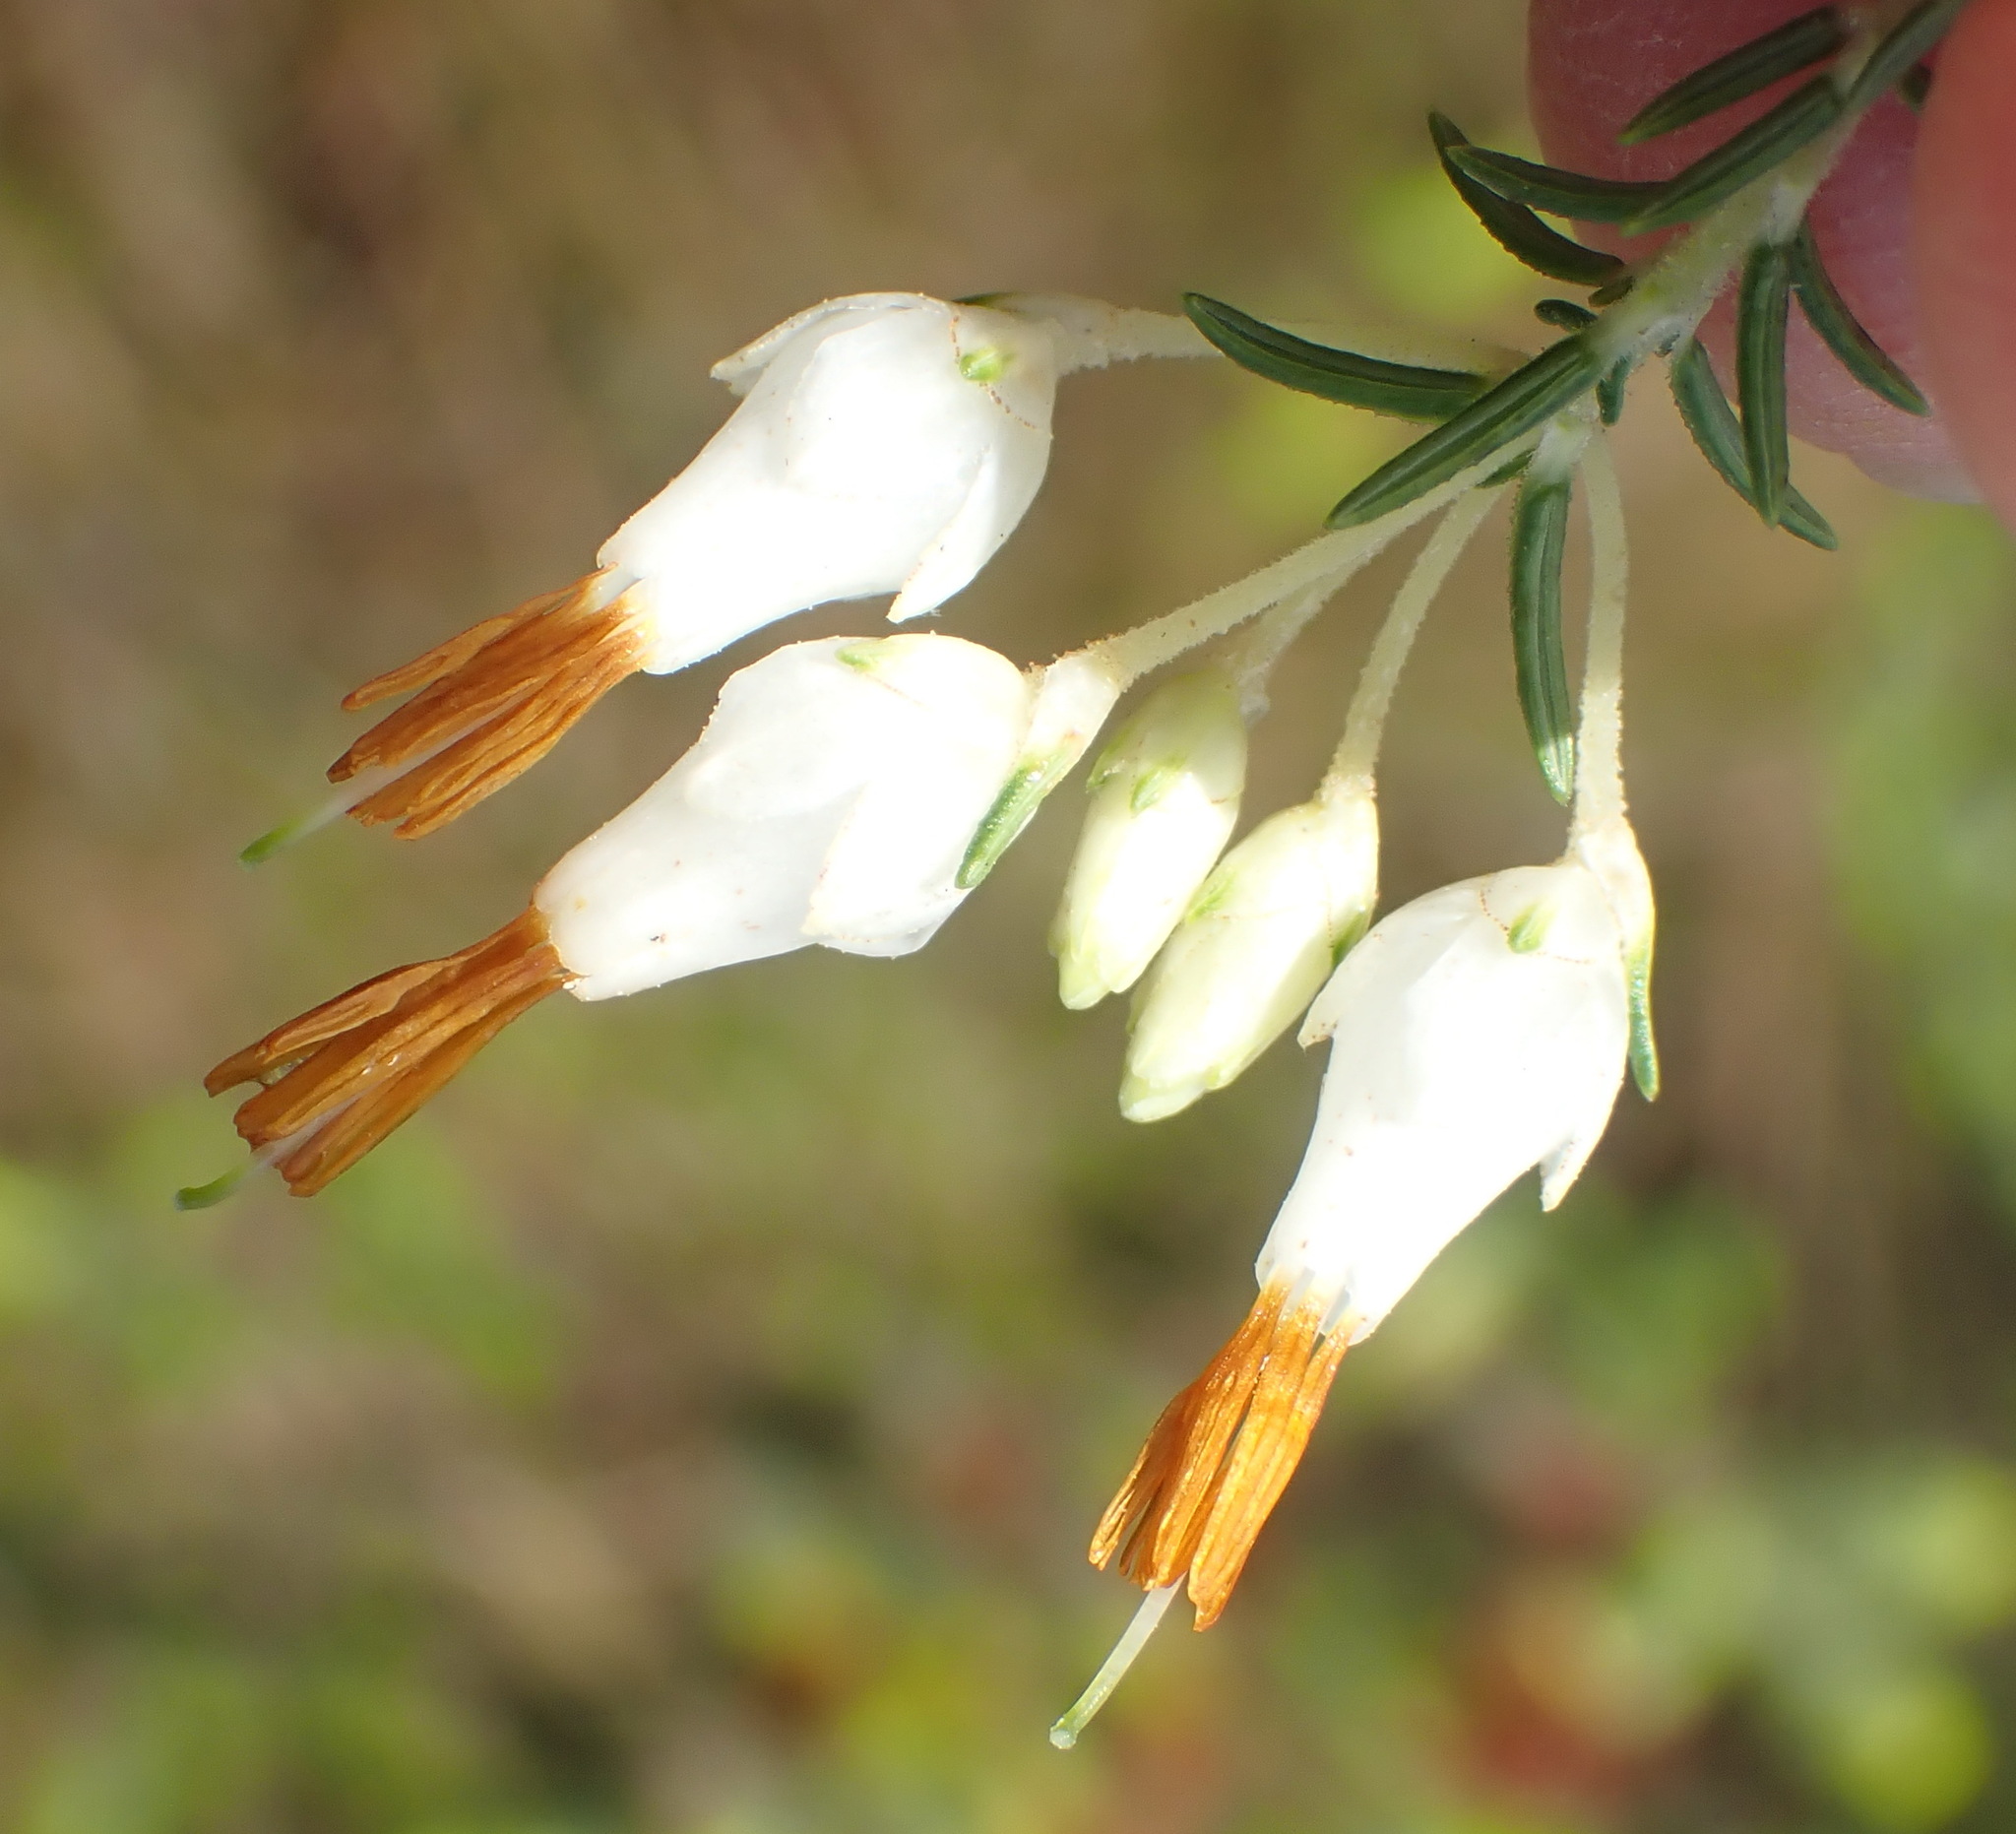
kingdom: Plantae
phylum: Tracheophyta
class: Magnoliopsida
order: Ericales
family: Ericaceae
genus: Erica
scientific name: Erica intermedia
